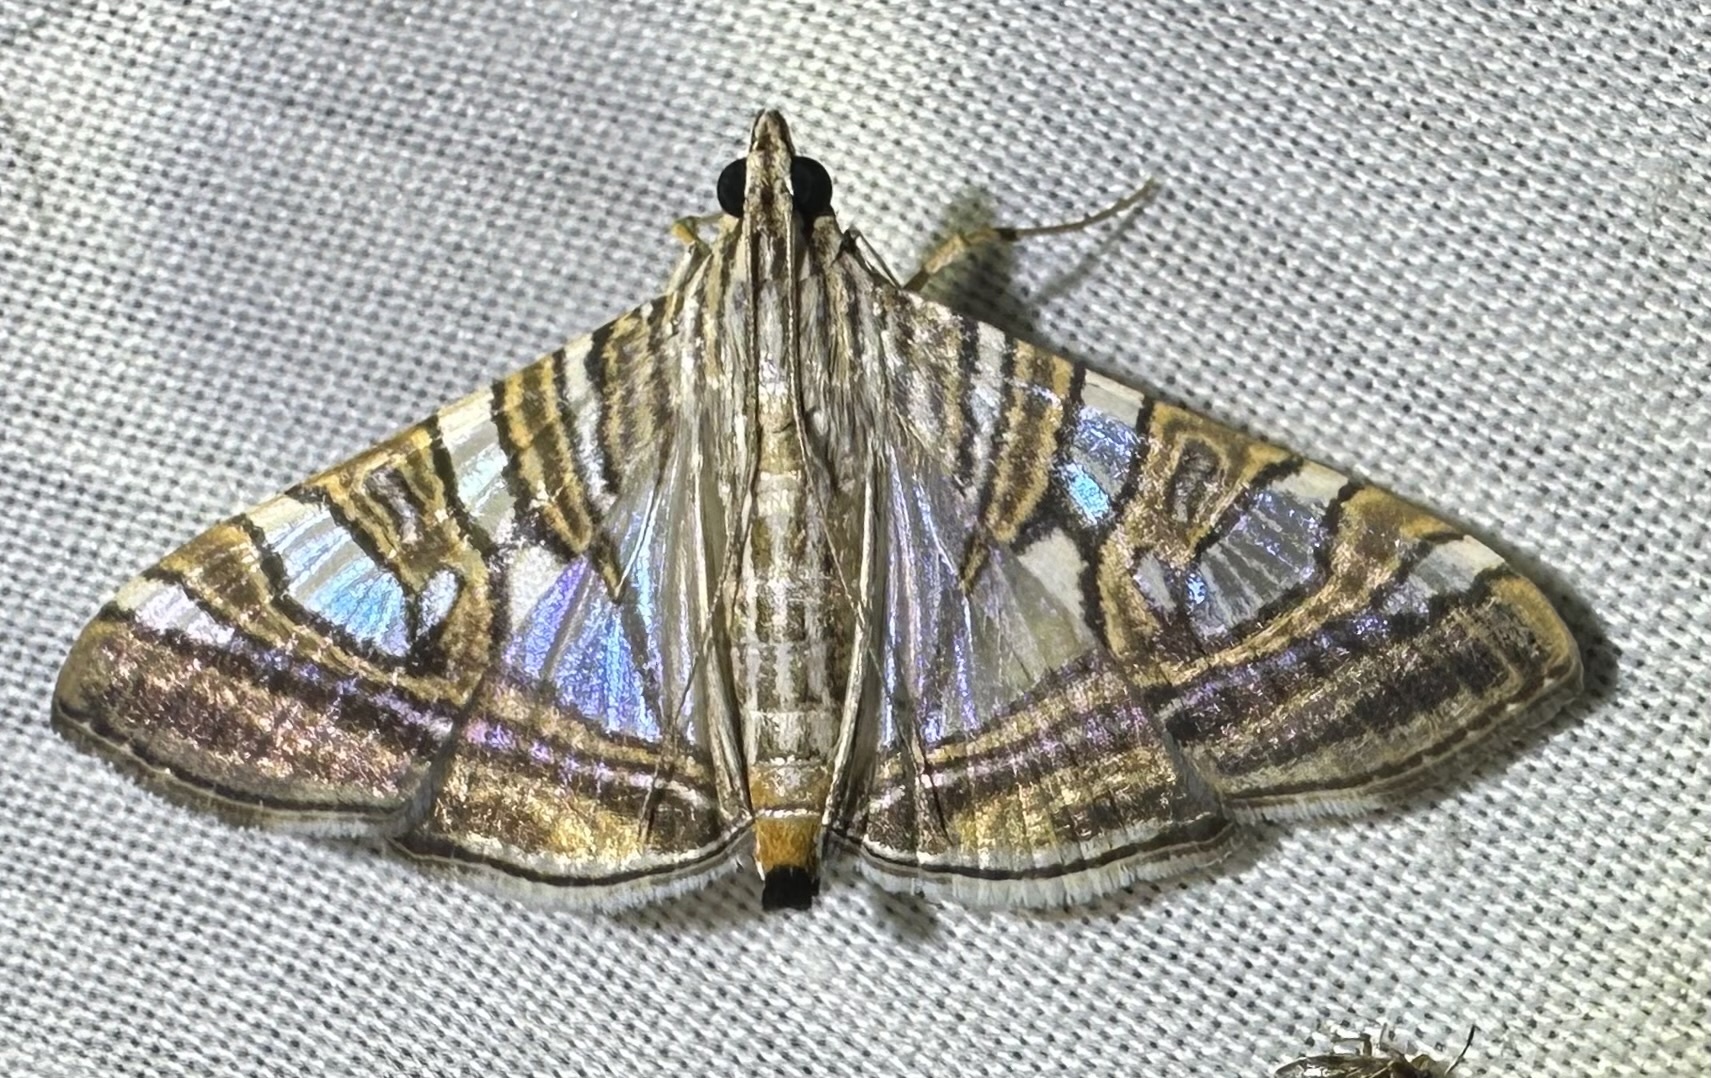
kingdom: Animalia
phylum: Arthropoda
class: Insecta
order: Lepidoptera
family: Crambidae
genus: Glyphodes
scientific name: Glyphodes stolalis
